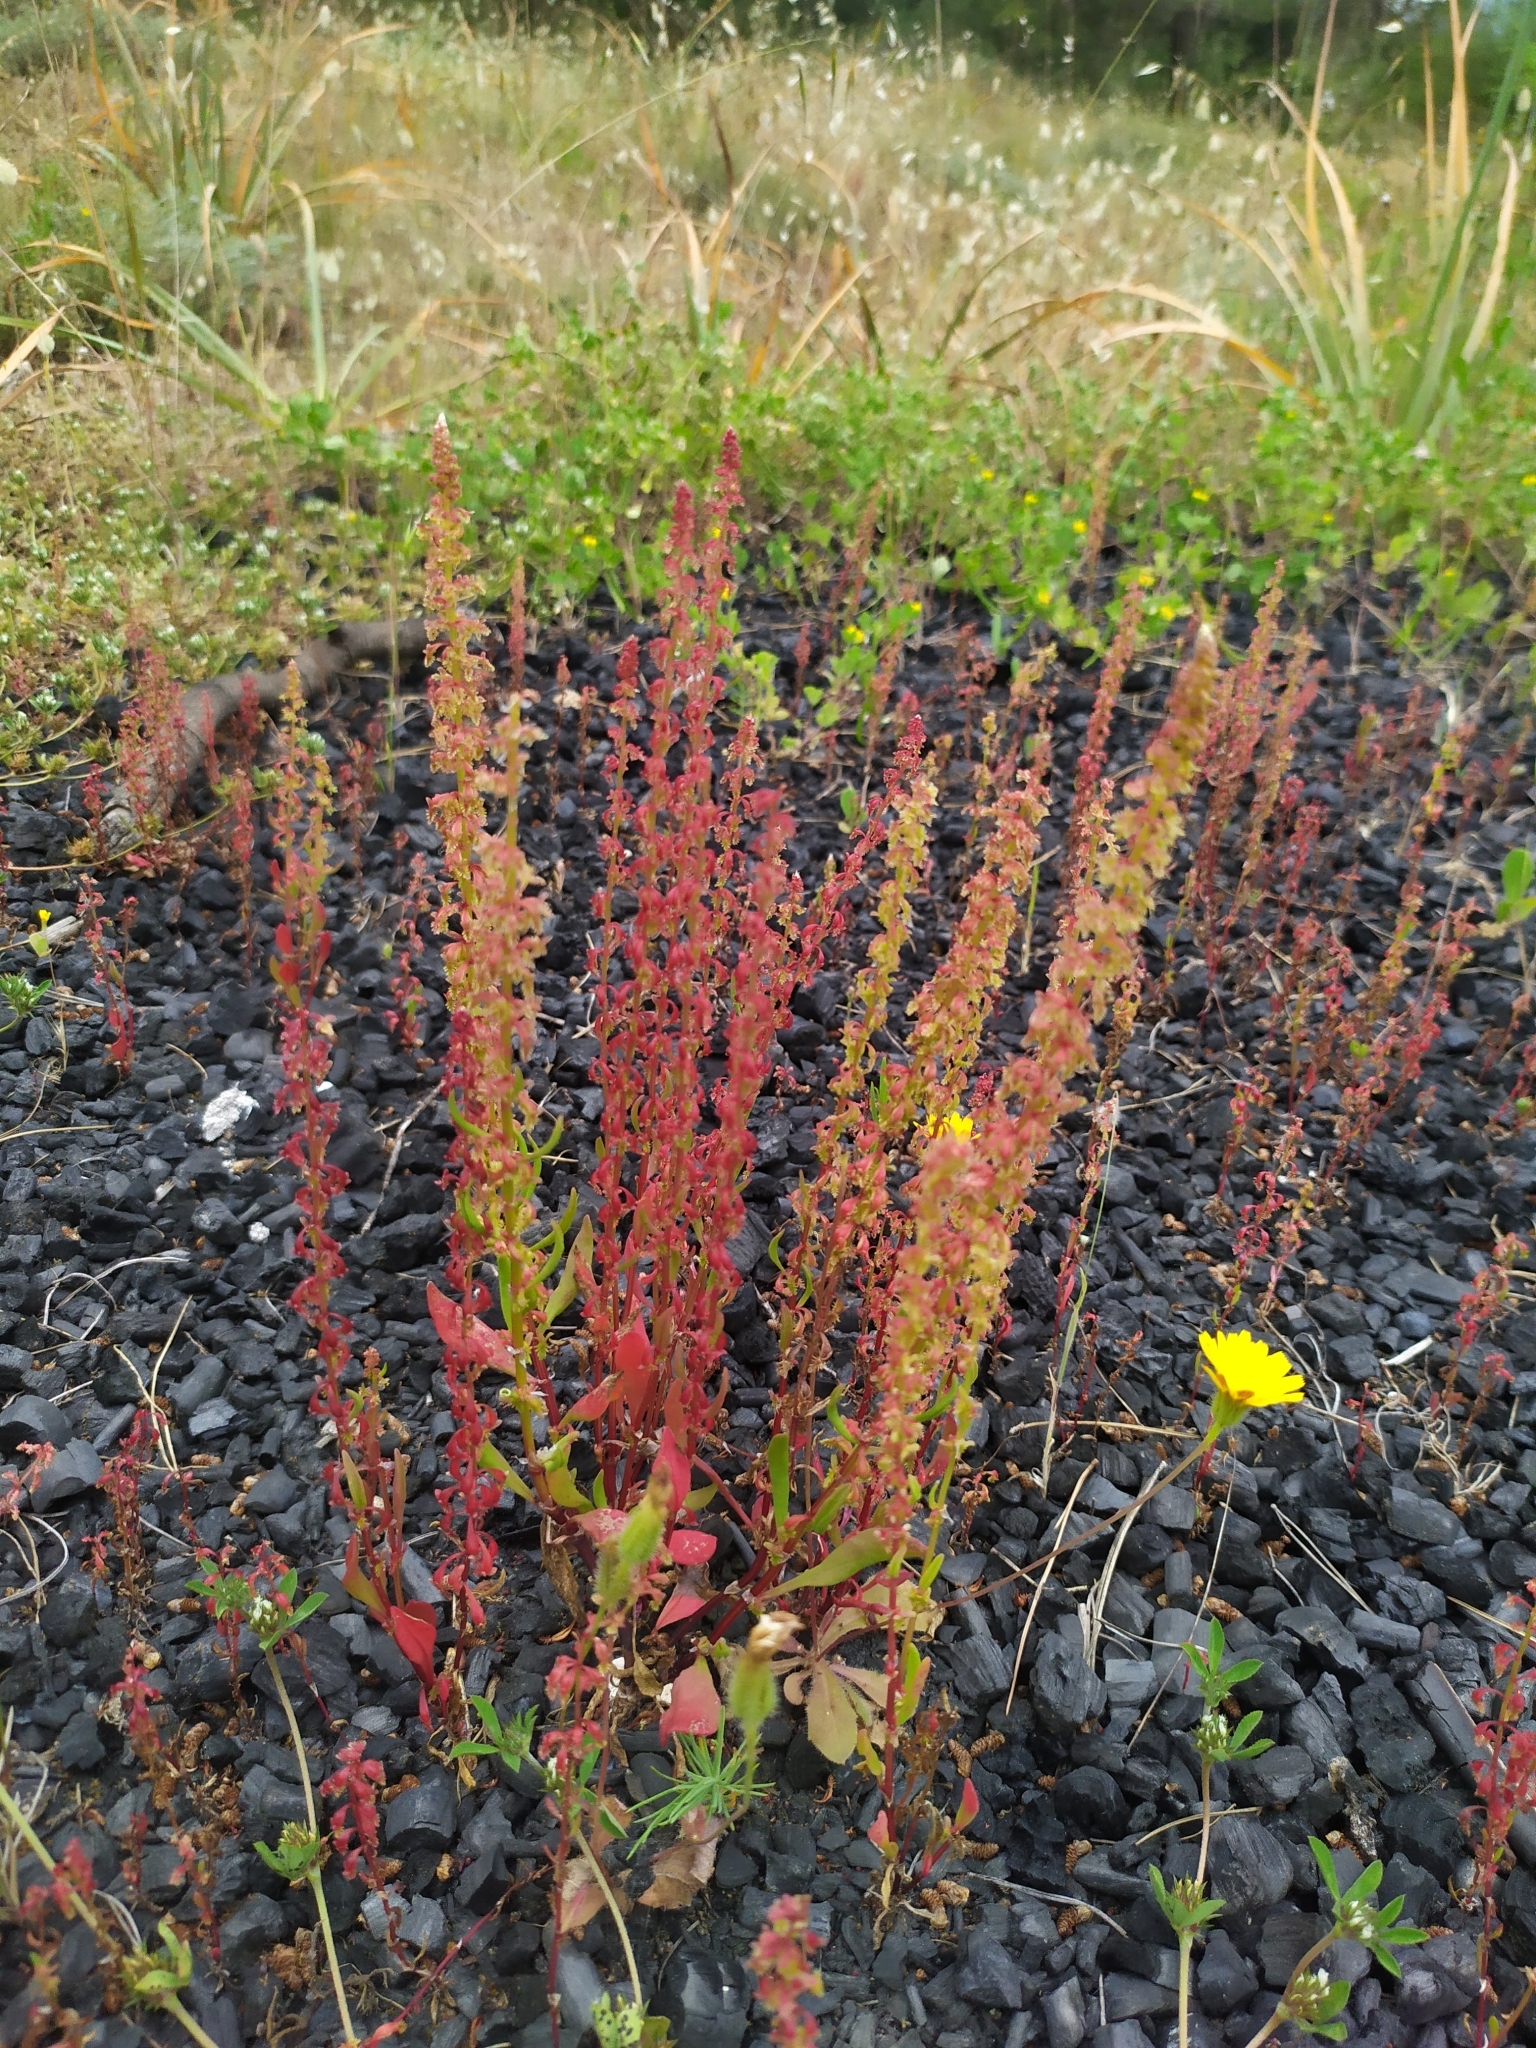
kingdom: Plantae
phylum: Tracheophyta
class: Magnoliopsida
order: Caryophyllales
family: Polygonaceae
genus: Rumex
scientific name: Rumex bucephalophorus
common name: Red dock
